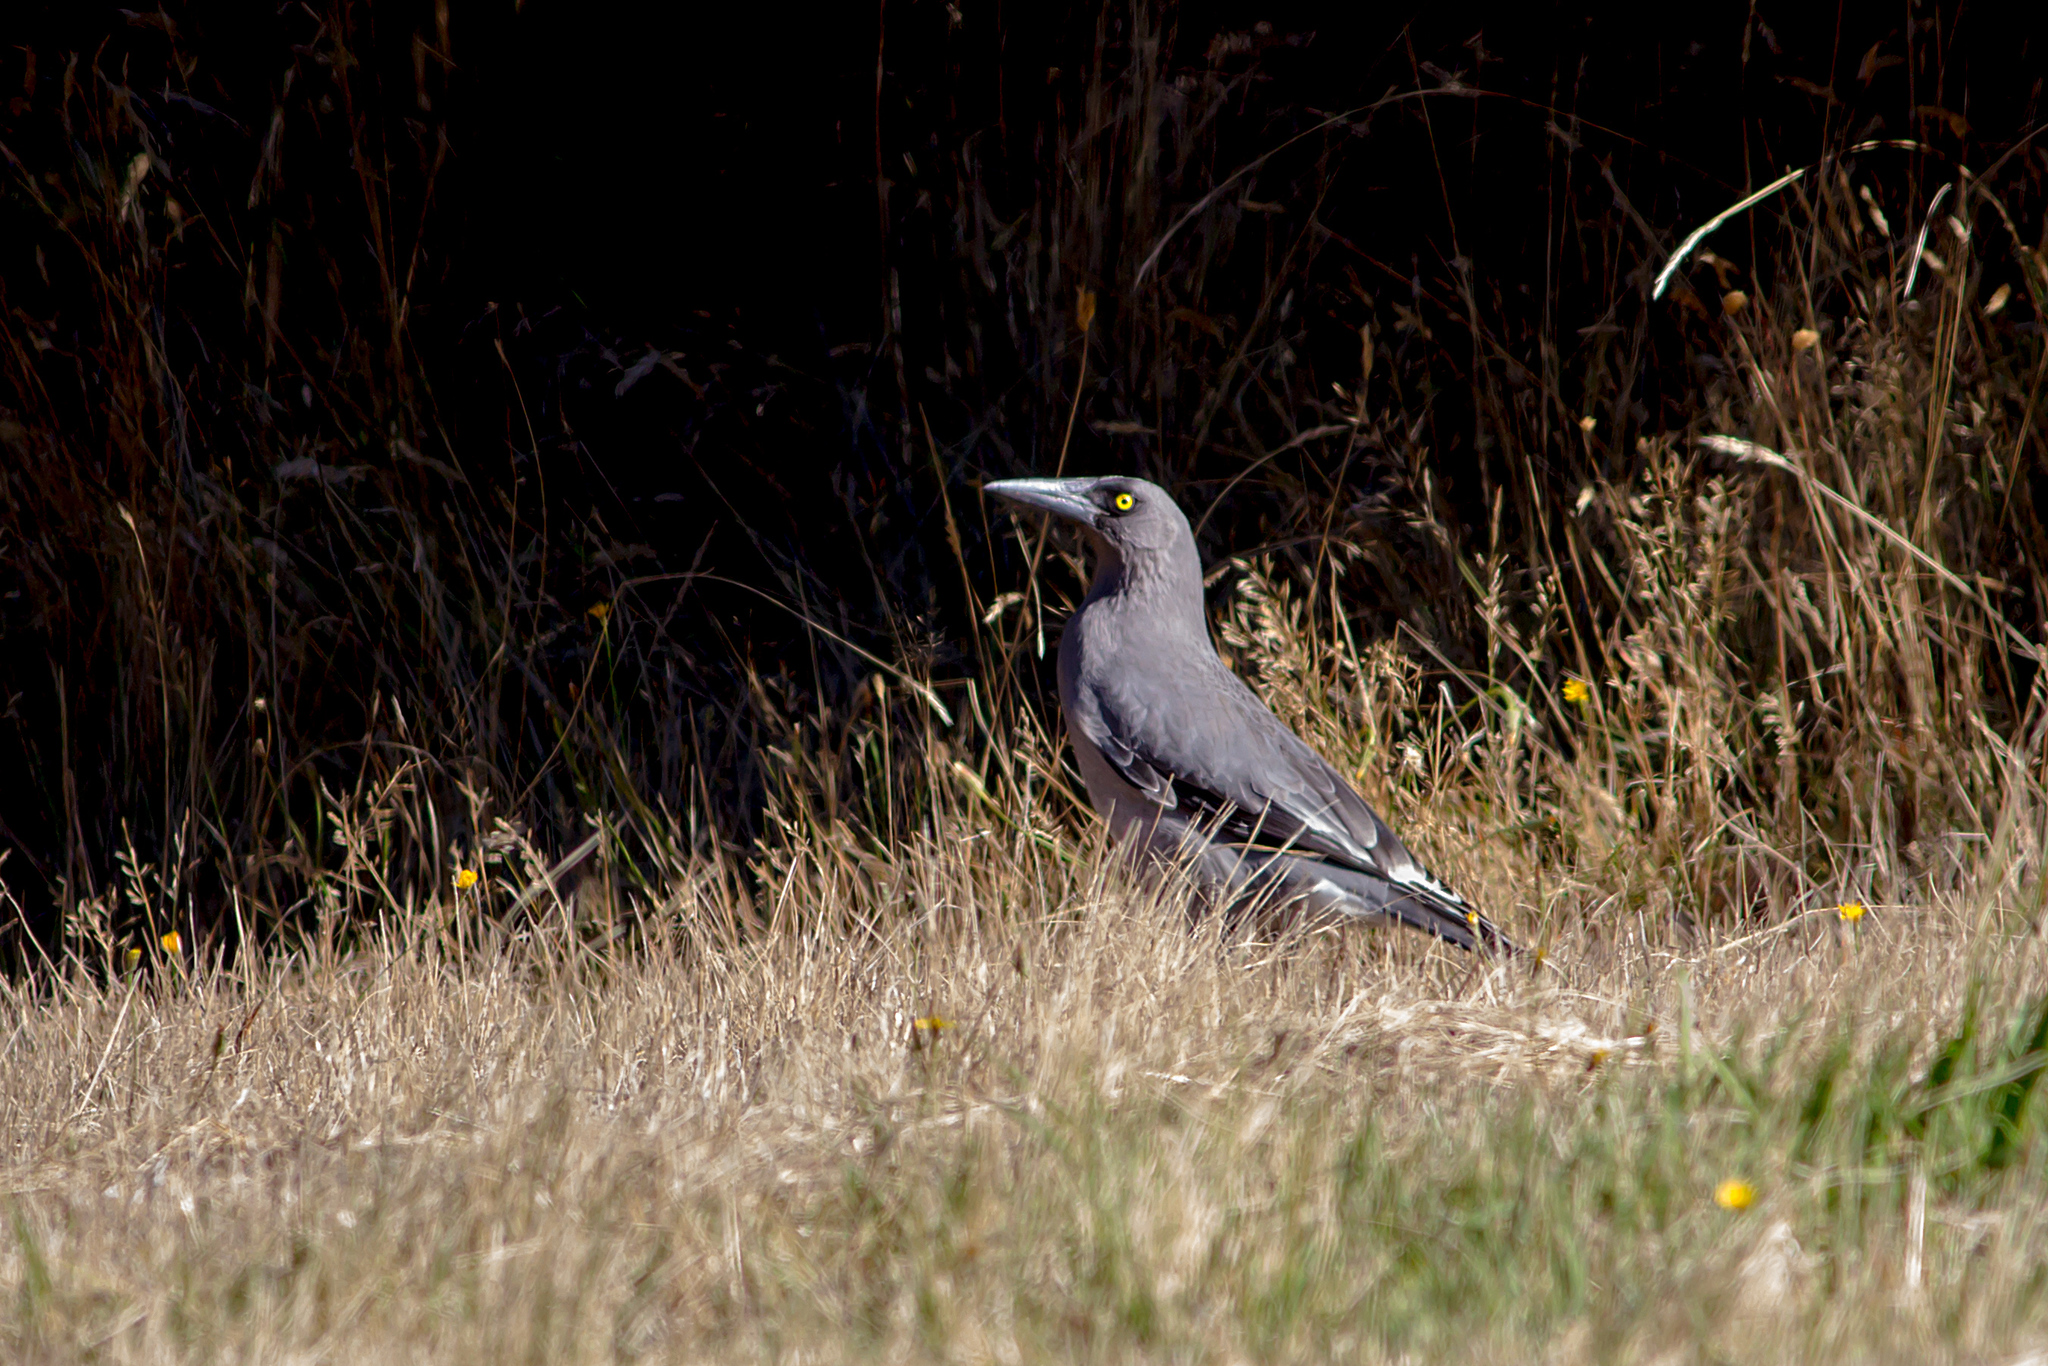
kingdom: Animalia
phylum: Chordata
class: Aves
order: Passeriformes
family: Cracticidae
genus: Strepera
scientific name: Strepera versicolor
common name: Grey currawong
